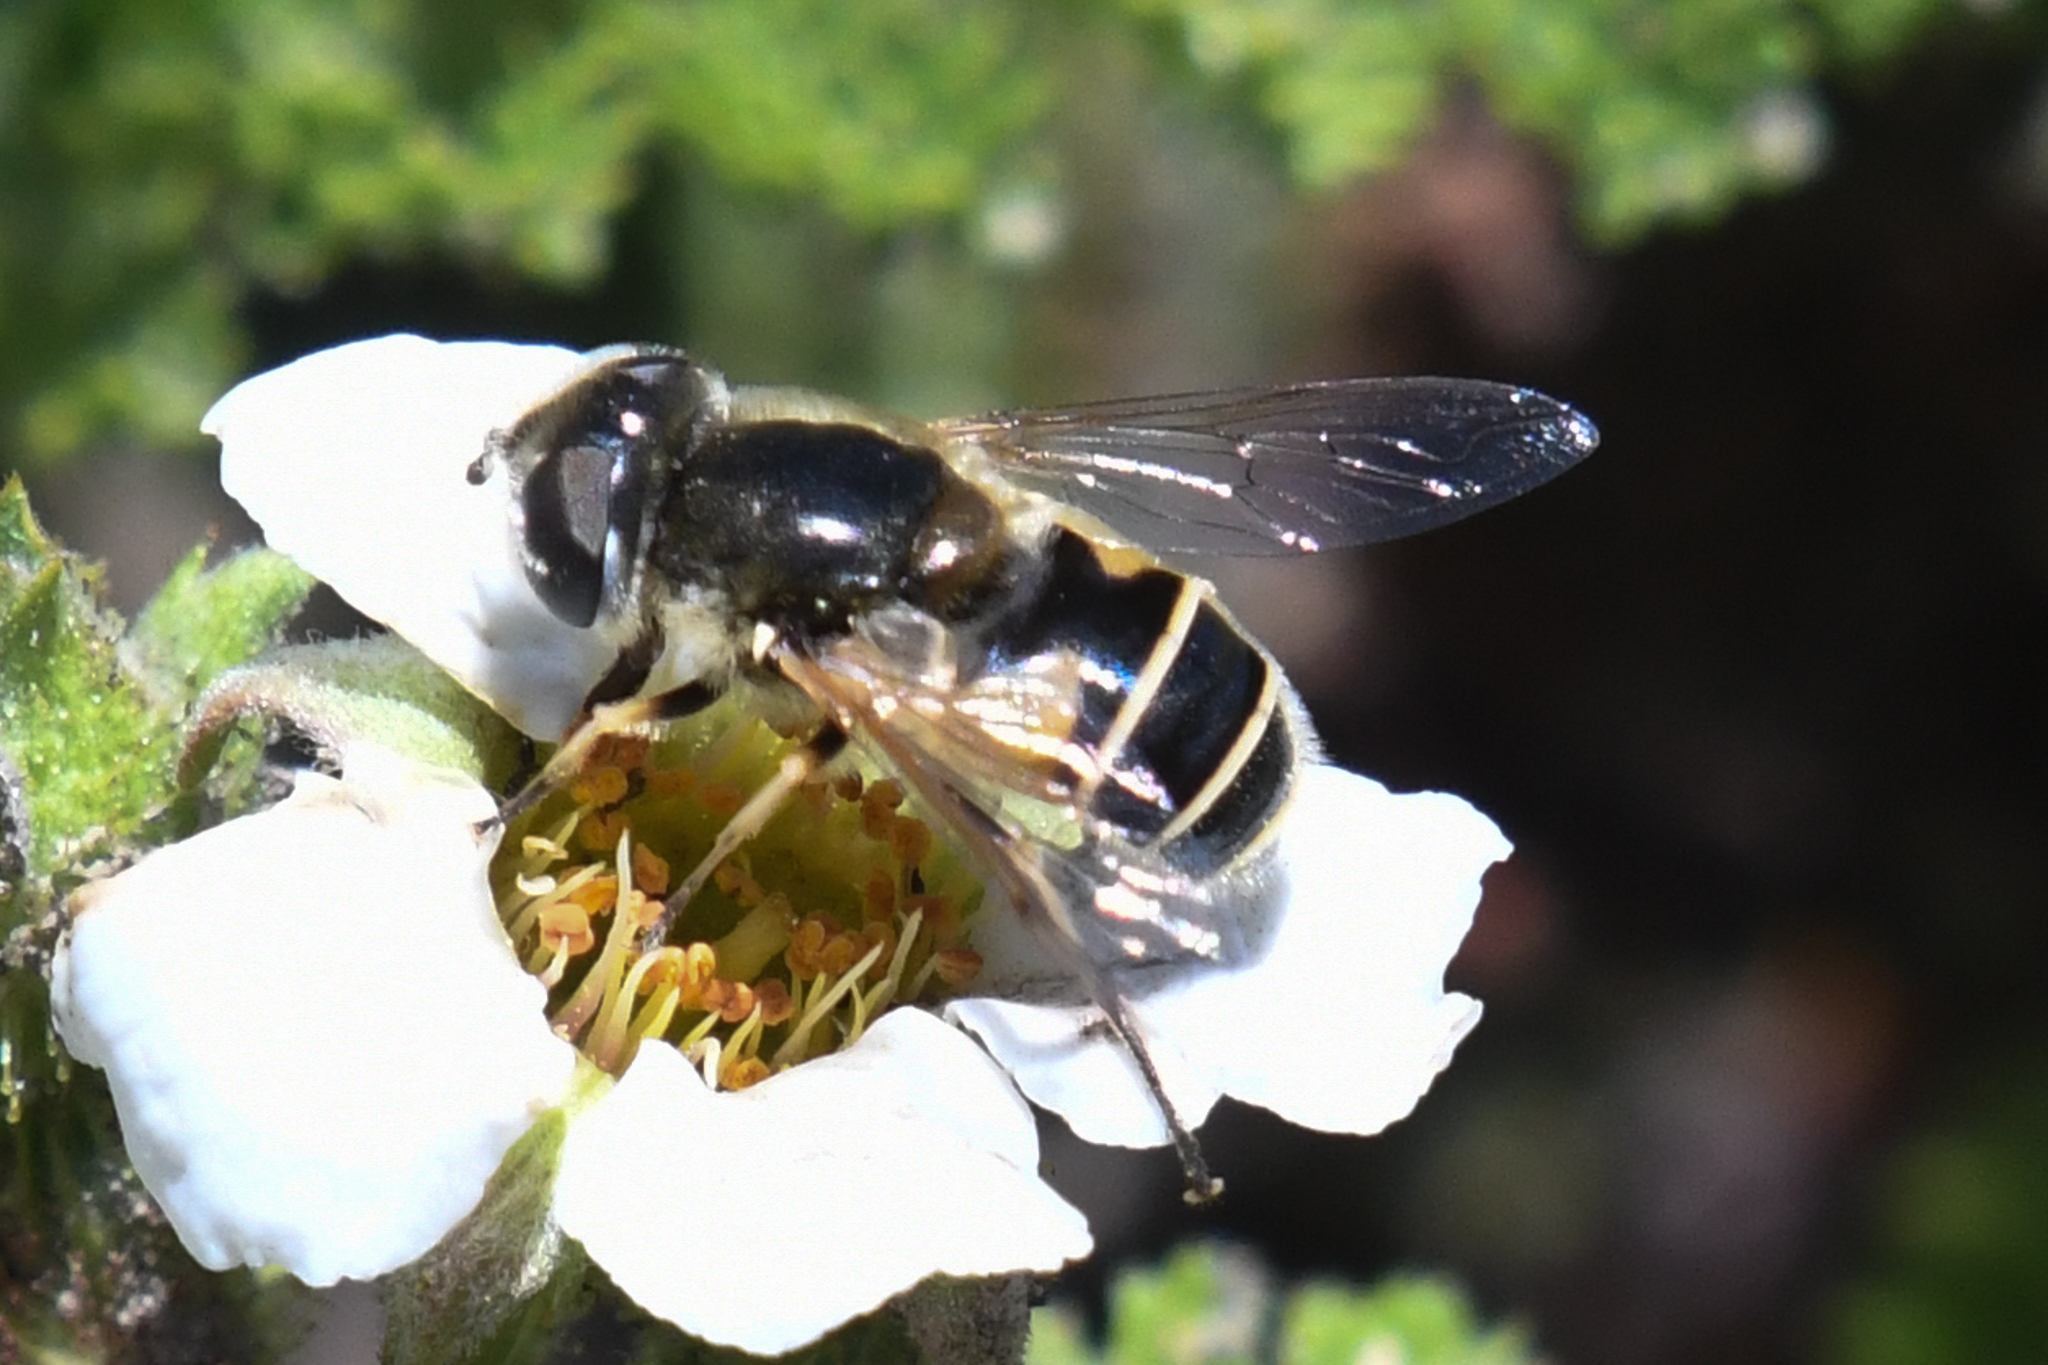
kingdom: Animalia
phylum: Arthropoda
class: Insecta
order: Diptera
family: Syrphidae
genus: Eristalis
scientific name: Eristalis hirta
